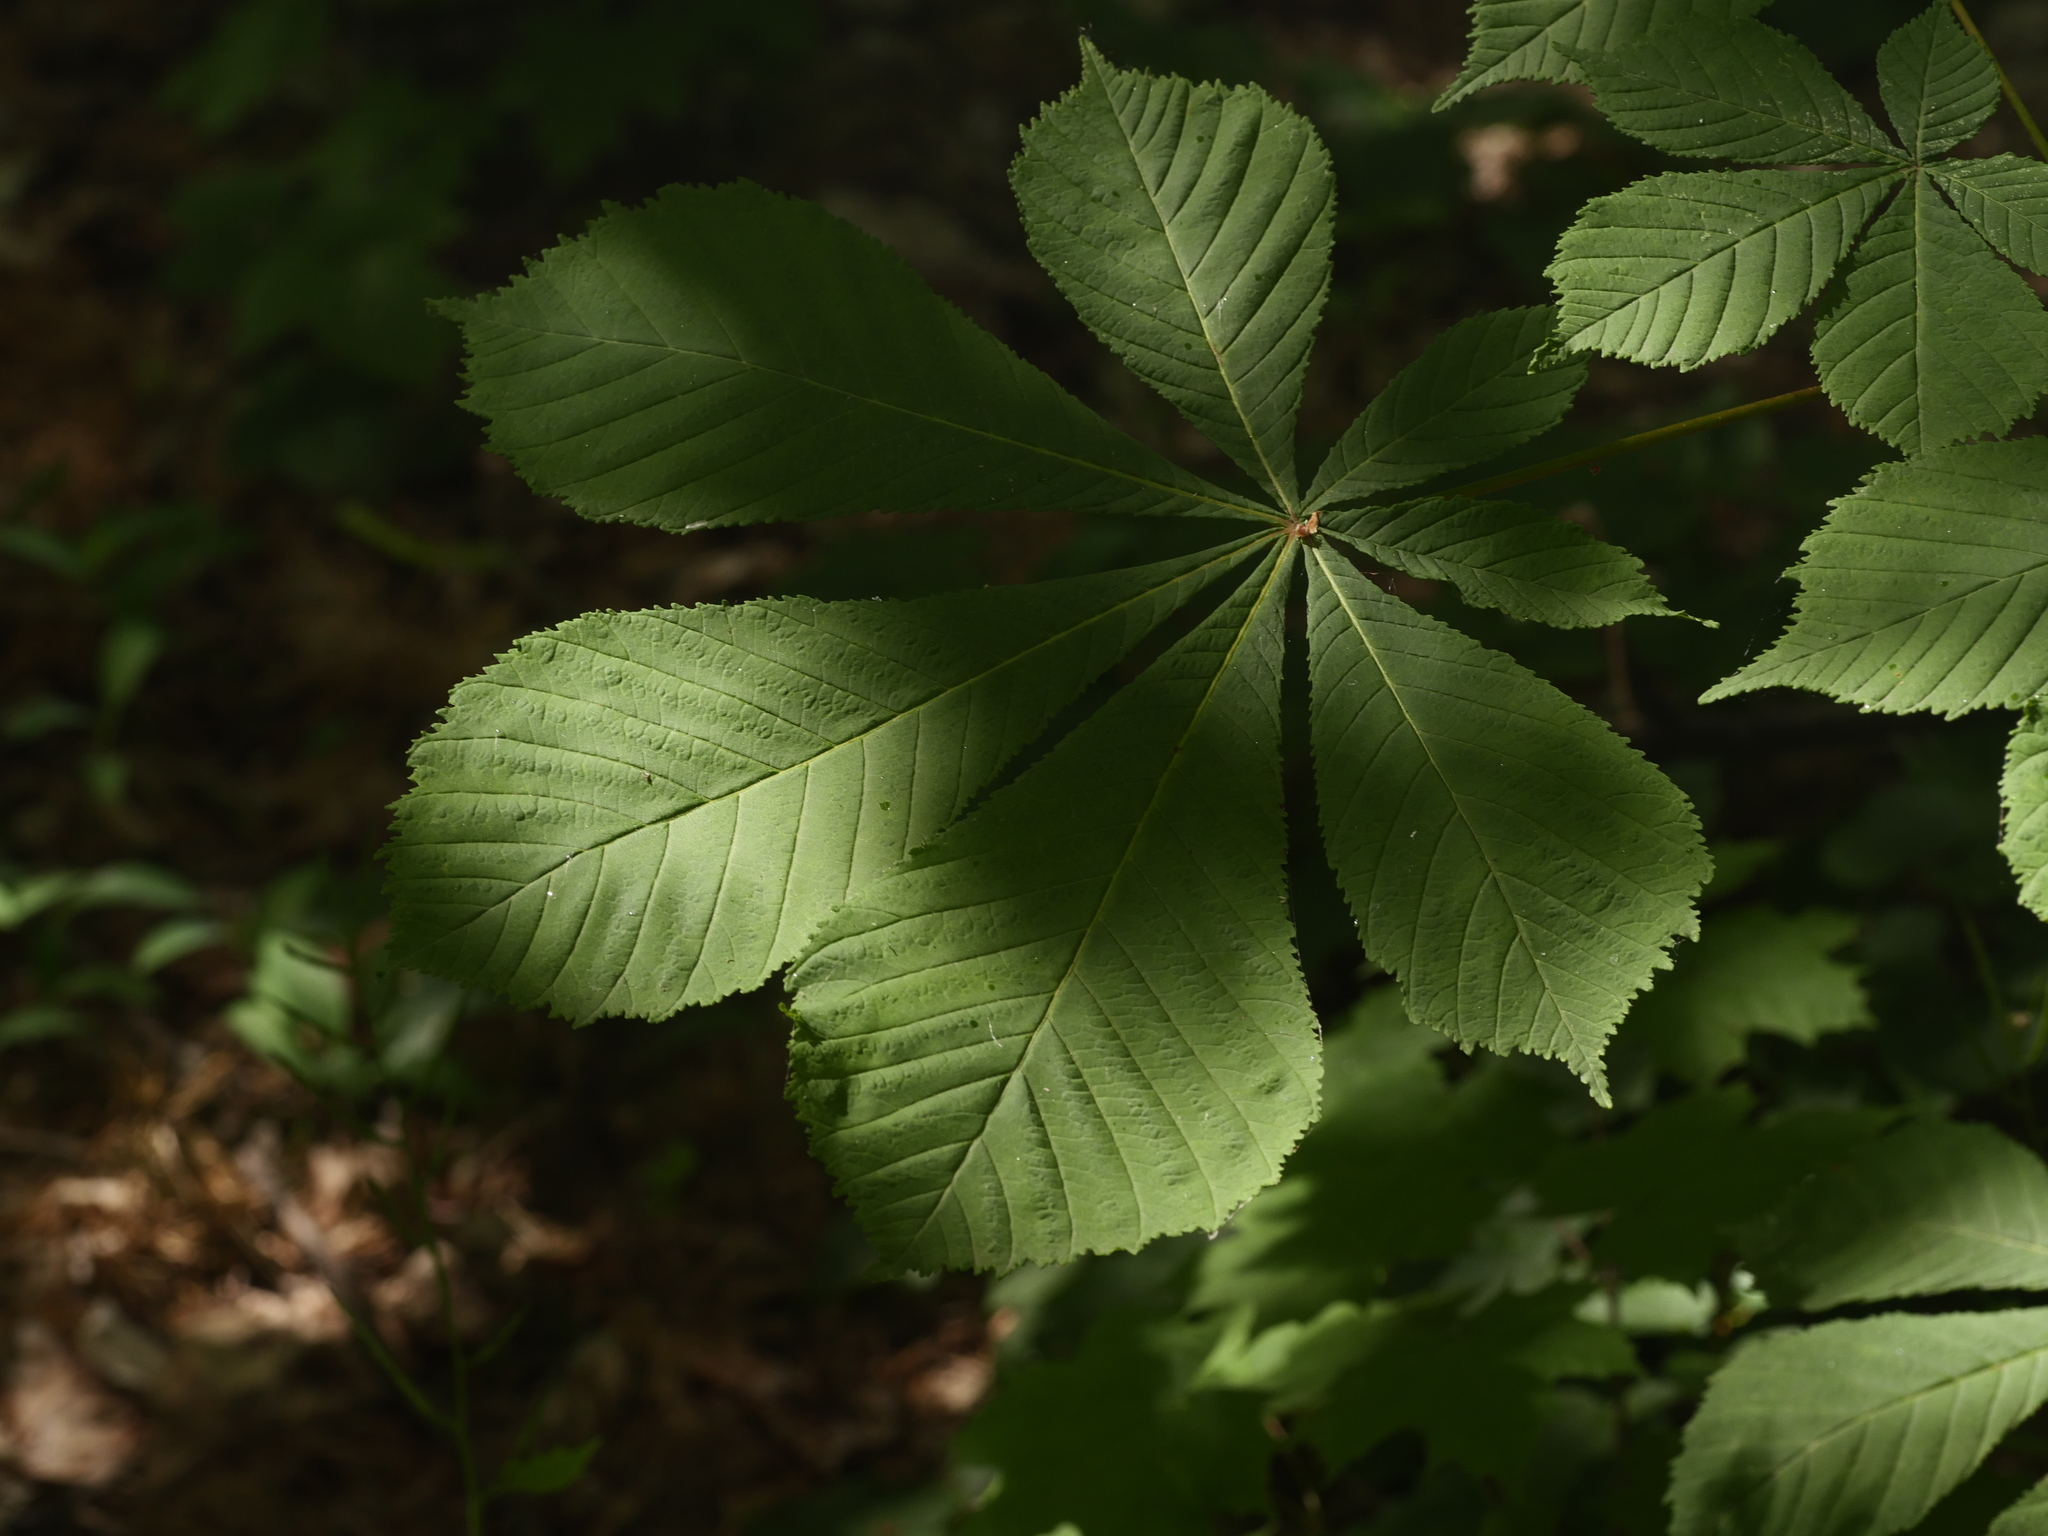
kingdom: Plantae
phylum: Tracheophyta
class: Magnoliopsida
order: Sapindales
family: Sapindaceae
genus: Aesculus
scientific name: Aesculus hippocastanum
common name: Horse-chestnut
